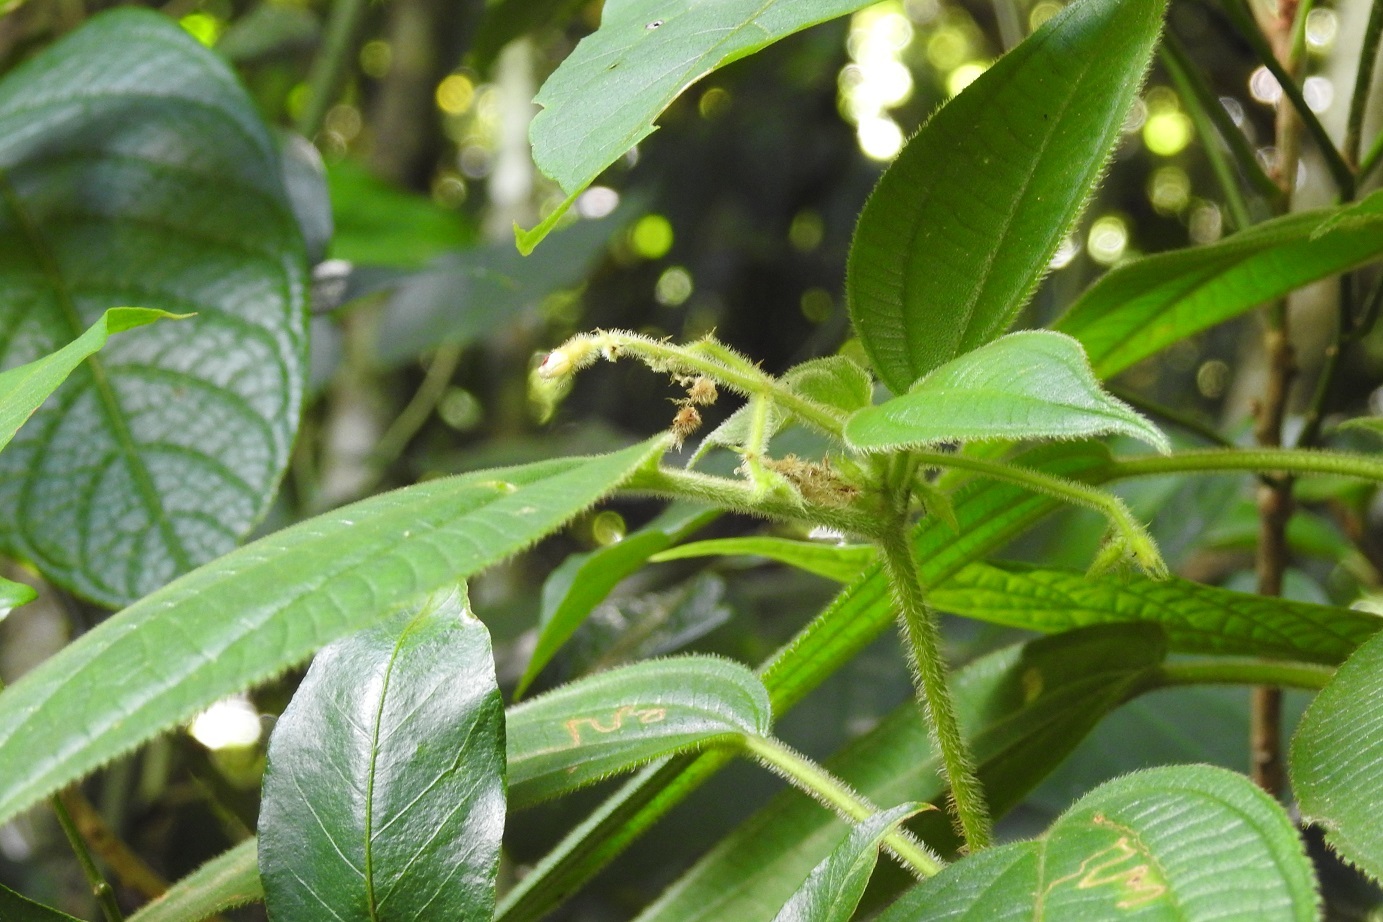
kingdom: Plantae
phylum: Tracheophyta
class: Magnoliopsida
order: Myrtales
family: Melastomataceae
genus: Miconia
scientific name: Miconia laxiflora
